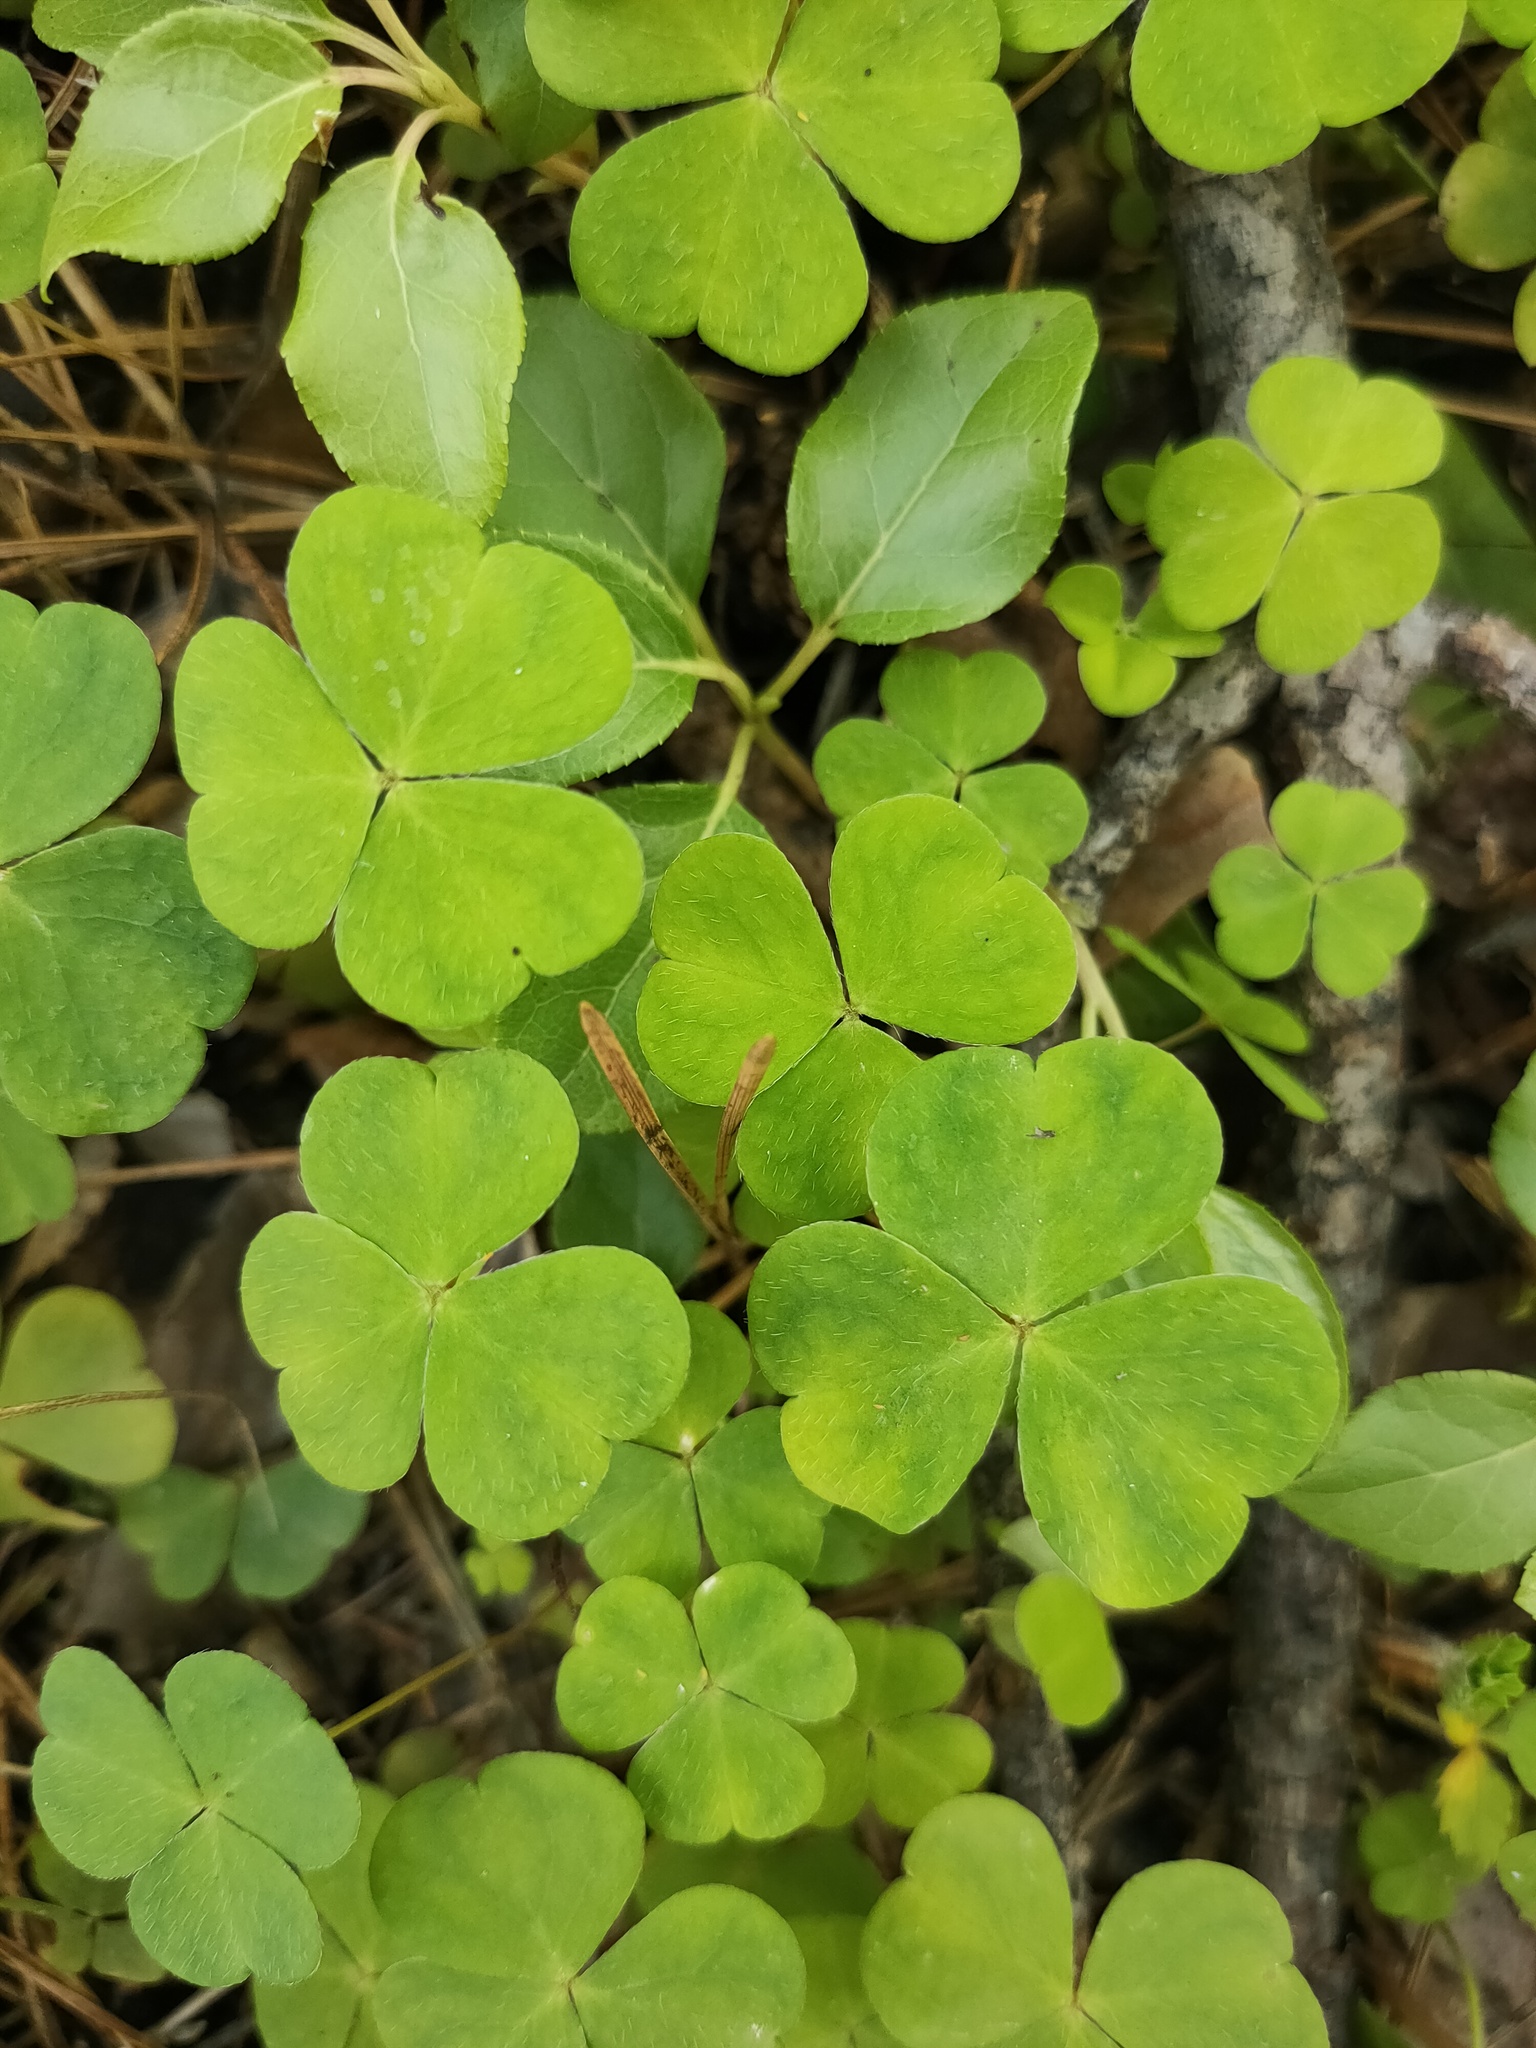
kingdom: Plantae
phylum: Tracheophyta
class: Magnoliopsida
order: Oxalidales
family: Oxalidaceae
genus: Oxalis
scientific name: Oxalis acetosella
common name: Wood-sorrel
